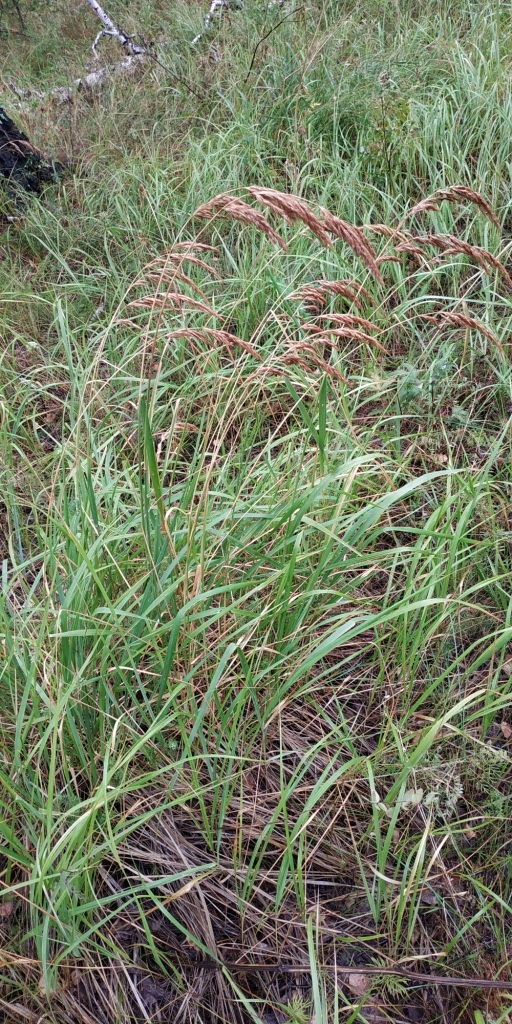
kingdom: Plantae
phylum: Tracheophyta
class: Liliopsida
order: Poales
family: Poaceae
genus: Calamagrostis
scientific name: Calamagrostis epigejos
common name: Wood small-reed
